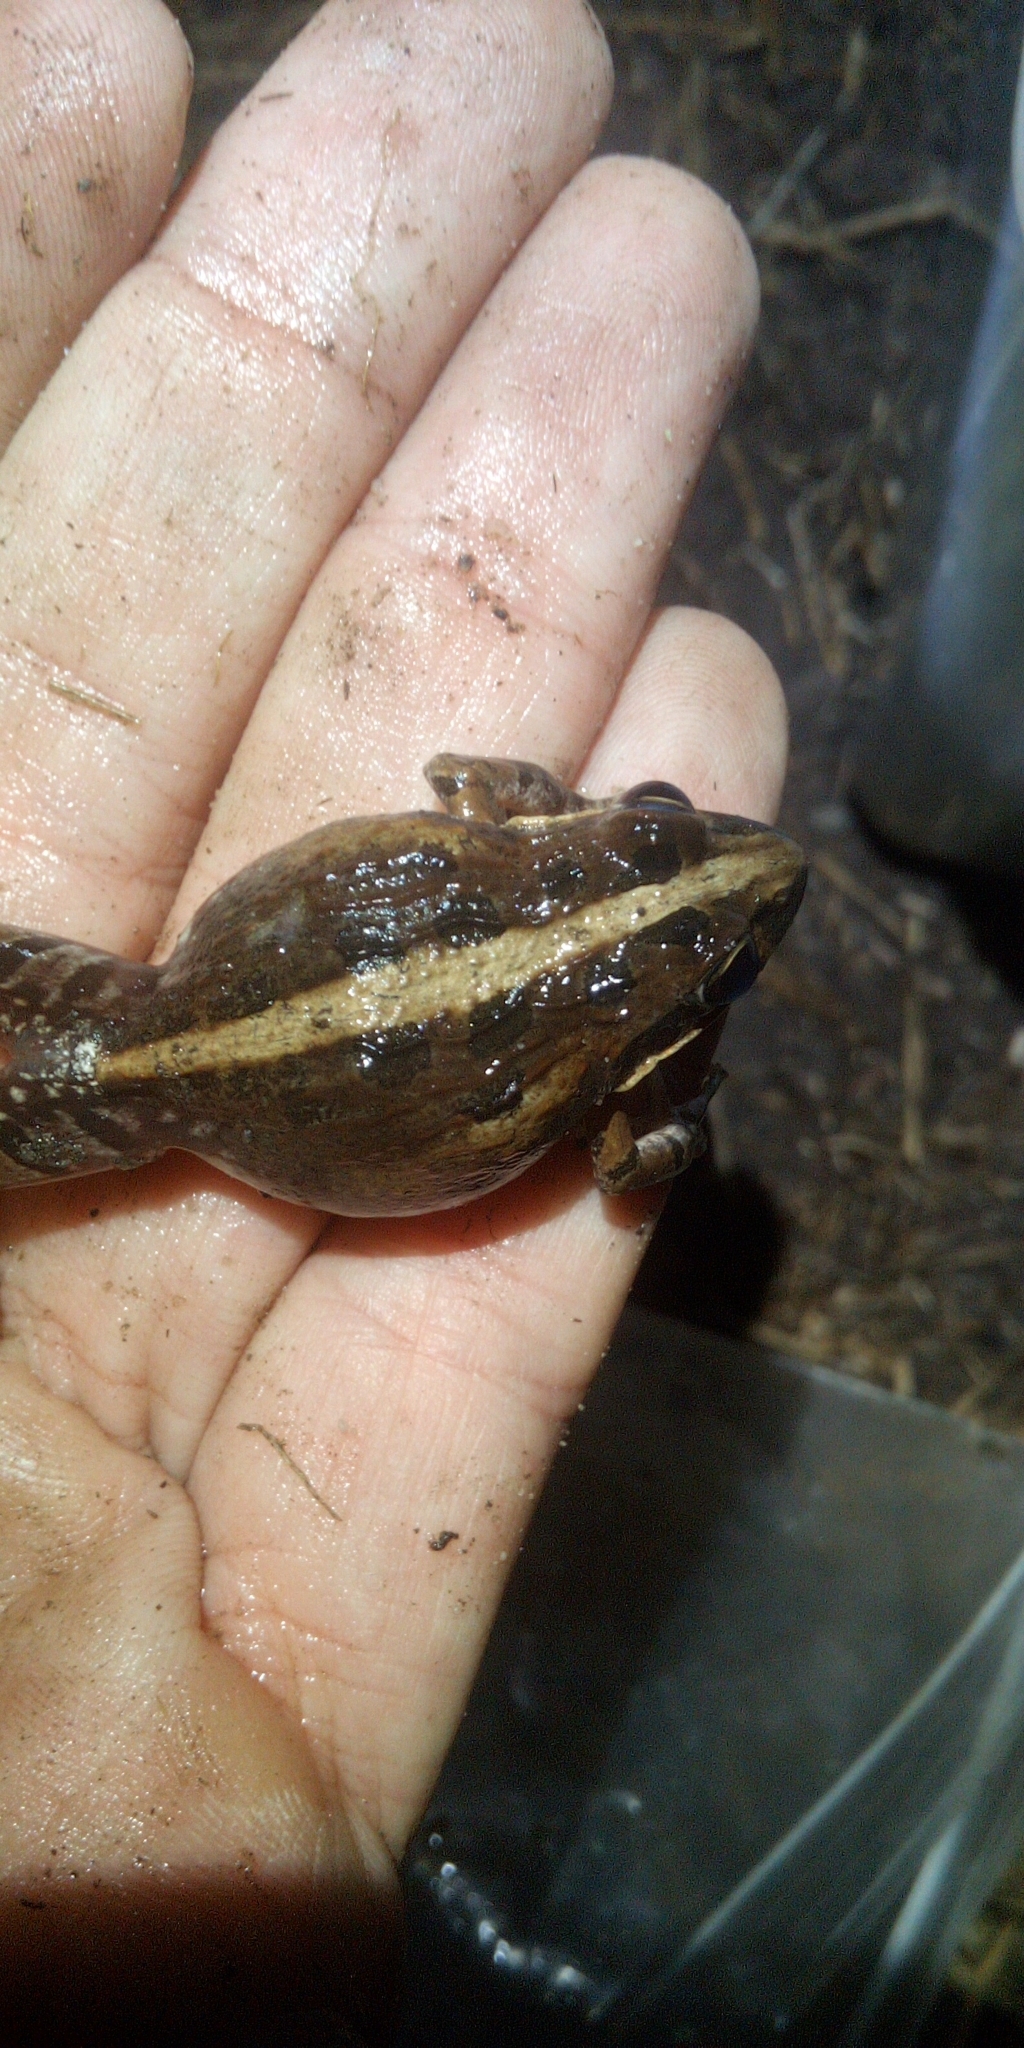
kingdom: Animalia
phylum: Chordata
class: Amphibia
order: Anura
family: Pyxicephalidae
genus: Strongylopus
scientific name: Strongylopus grayii
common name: Gray's stream frog
